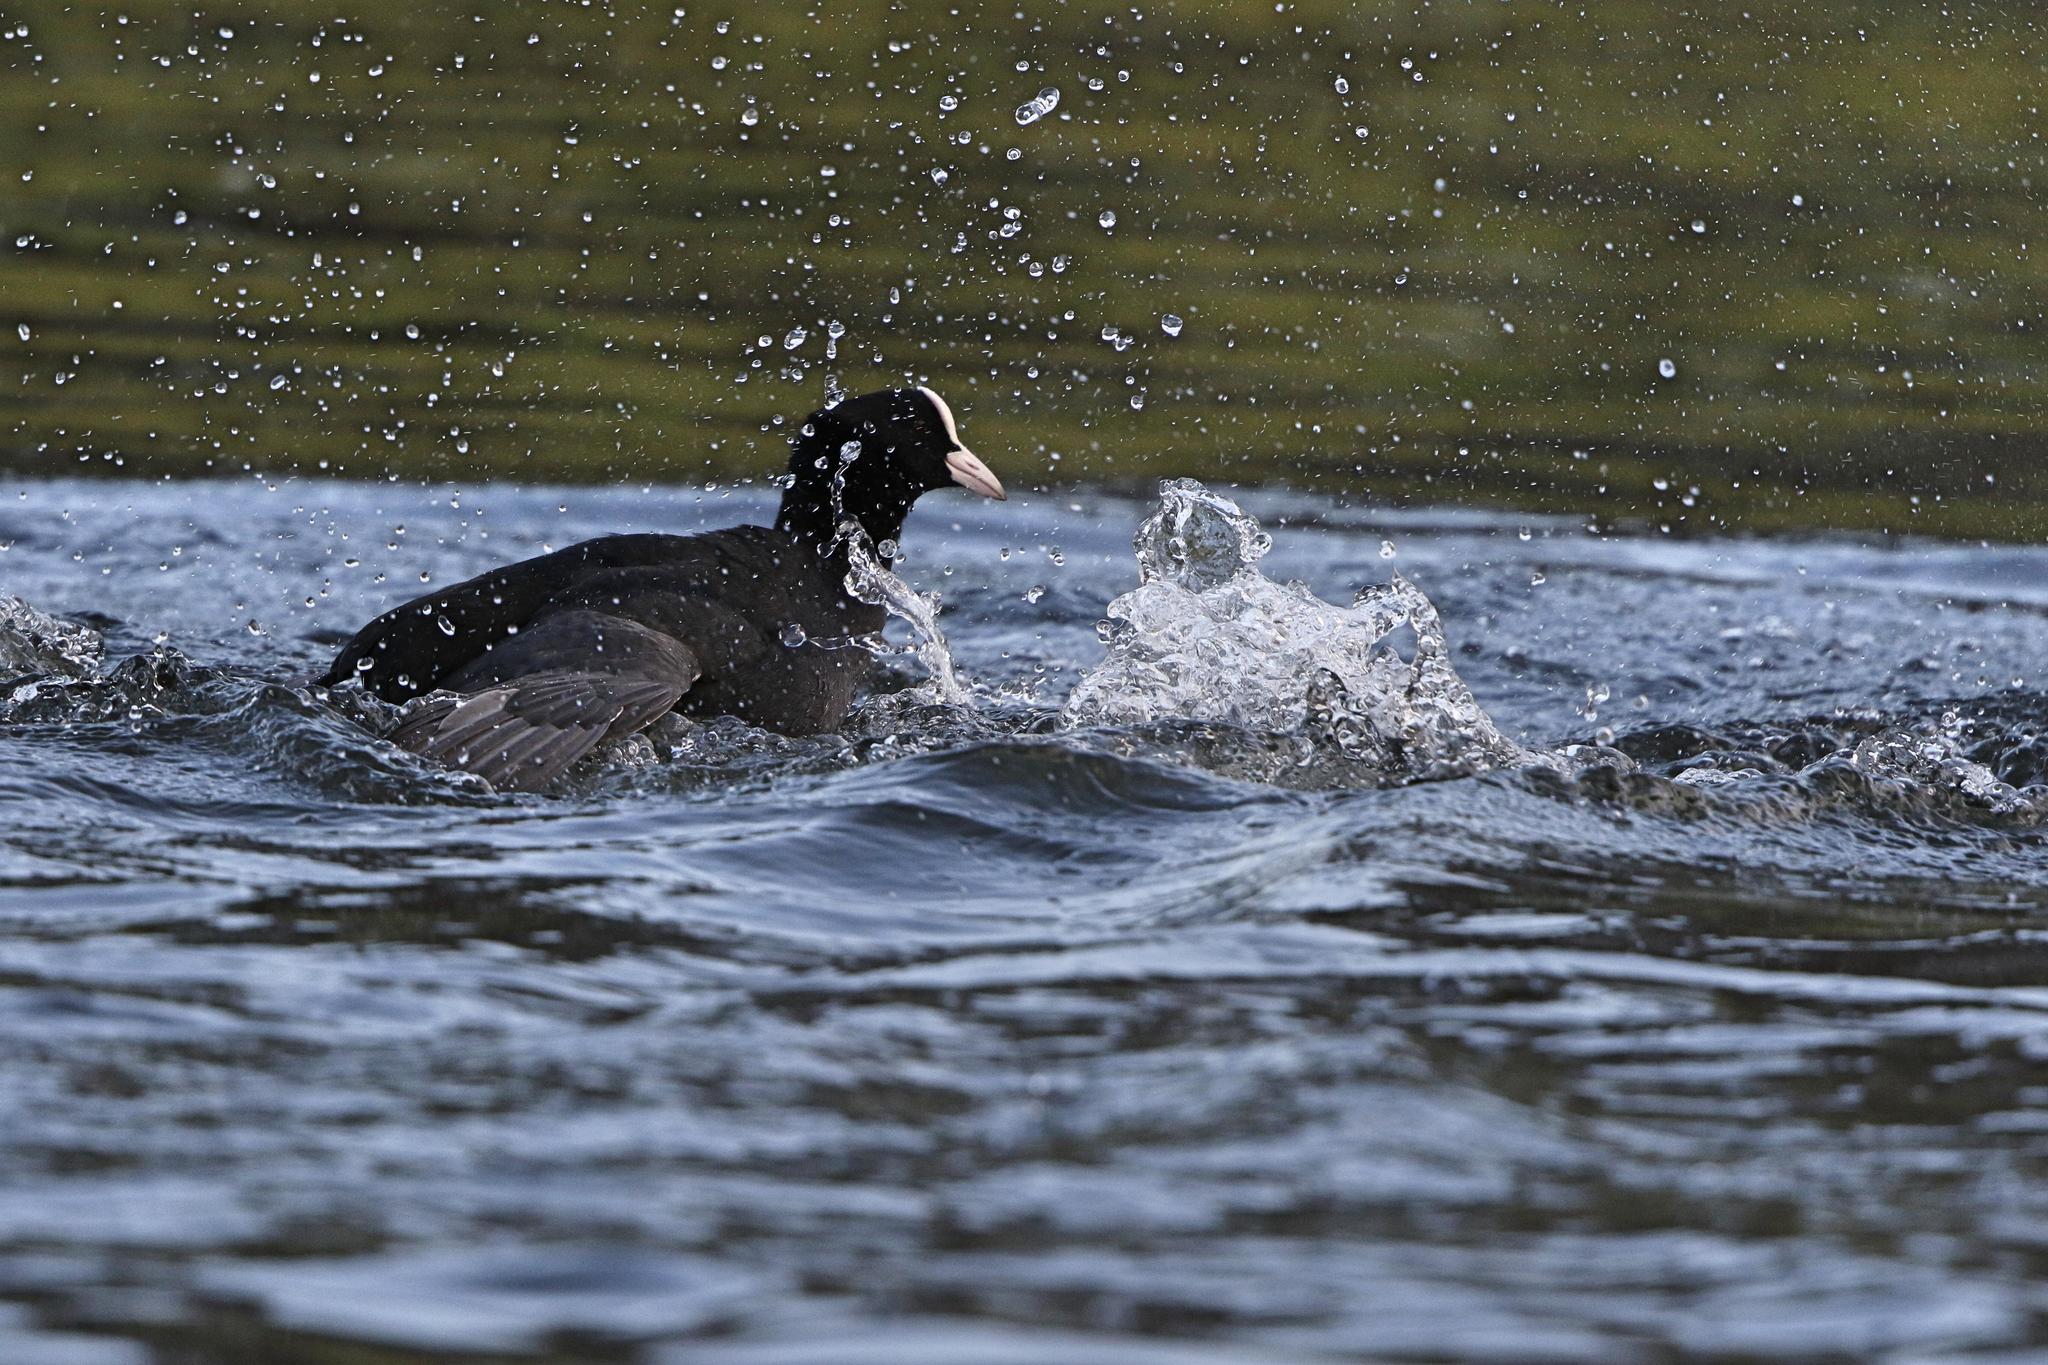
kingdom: Animalia
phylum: Chordata
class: Aves
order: Gruiformes
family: Rallidae
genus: Fulica
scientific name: Fulica atra
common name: Eurasian coot
